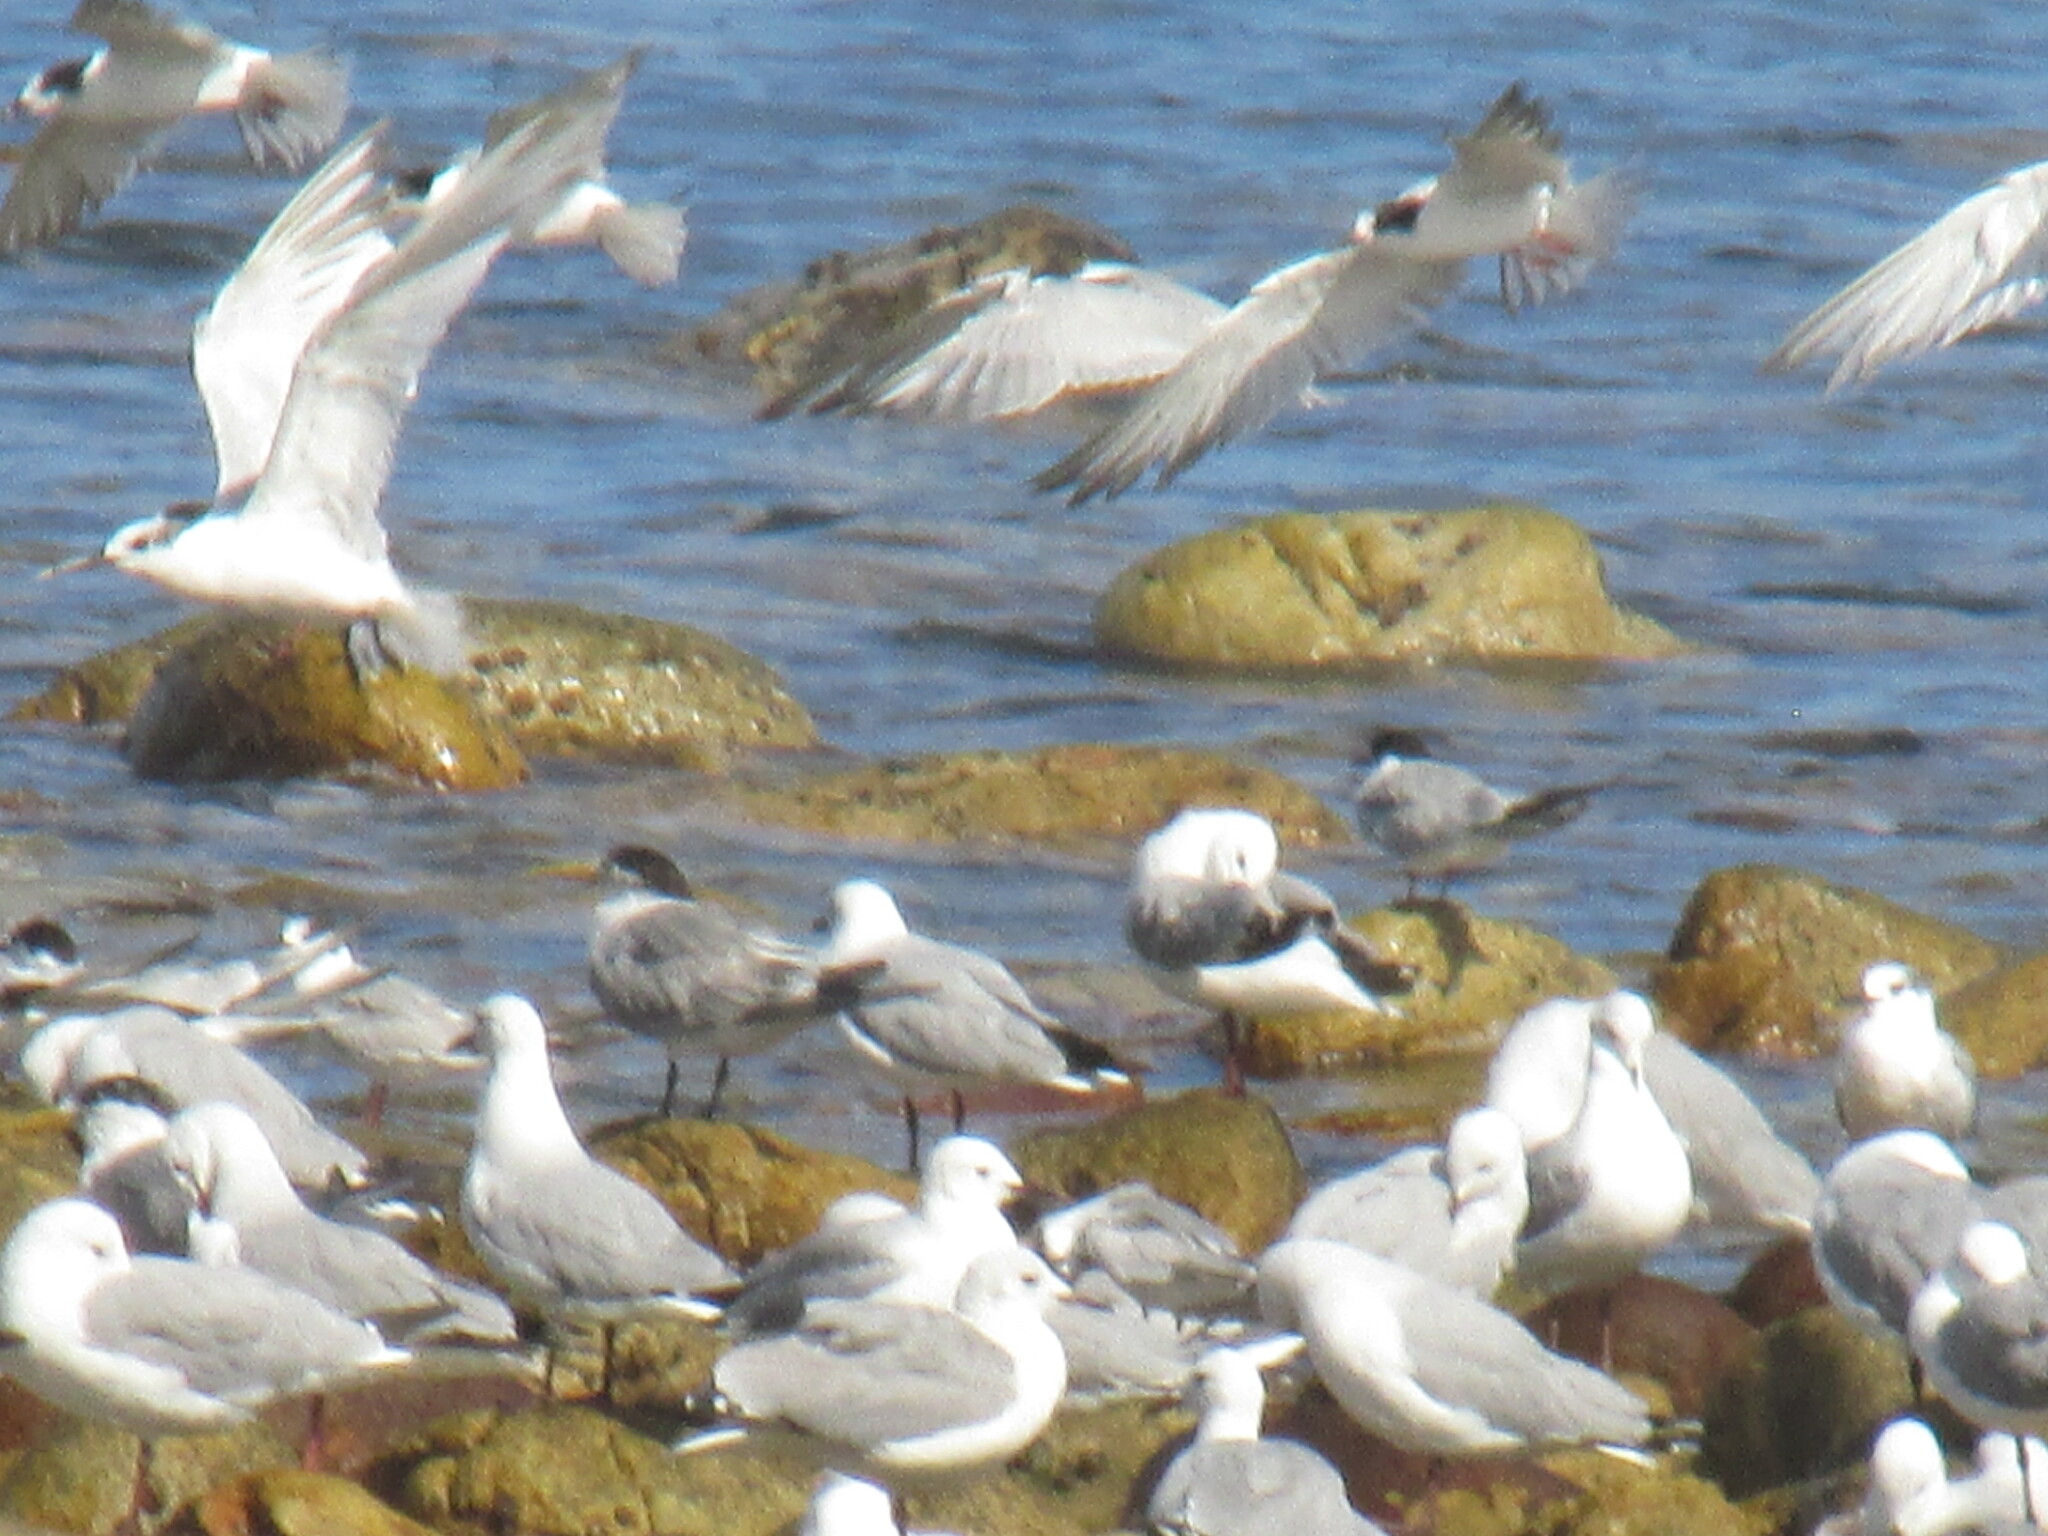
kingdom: Animalia
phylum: Chordata
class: Aves
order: Charadriiformes
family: Laridae
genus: Thalasseus
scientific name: Thalasseus bergii
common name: Greater crested tern
